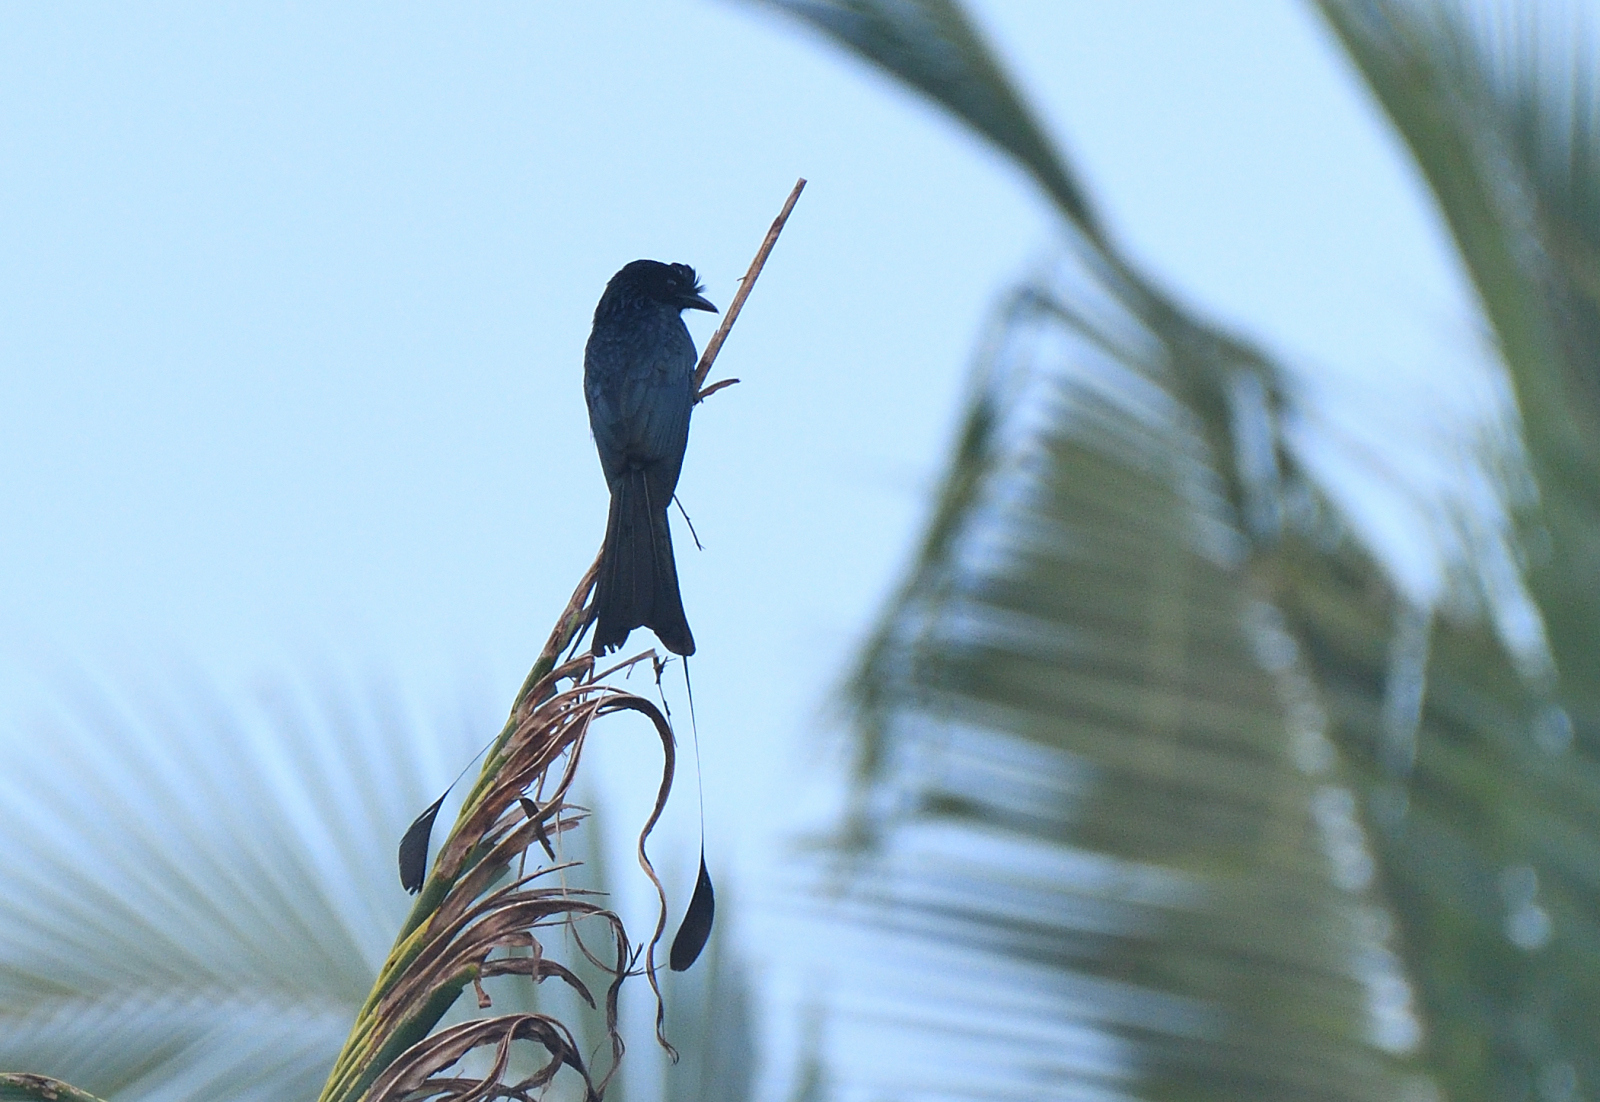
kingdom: Animalia
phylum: Chordata
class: Aves
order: Passeriformes
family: Dicruridae
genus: Dicrurus
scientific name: Dicrurus paradiseus
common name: Greater racket-tailed drongo
